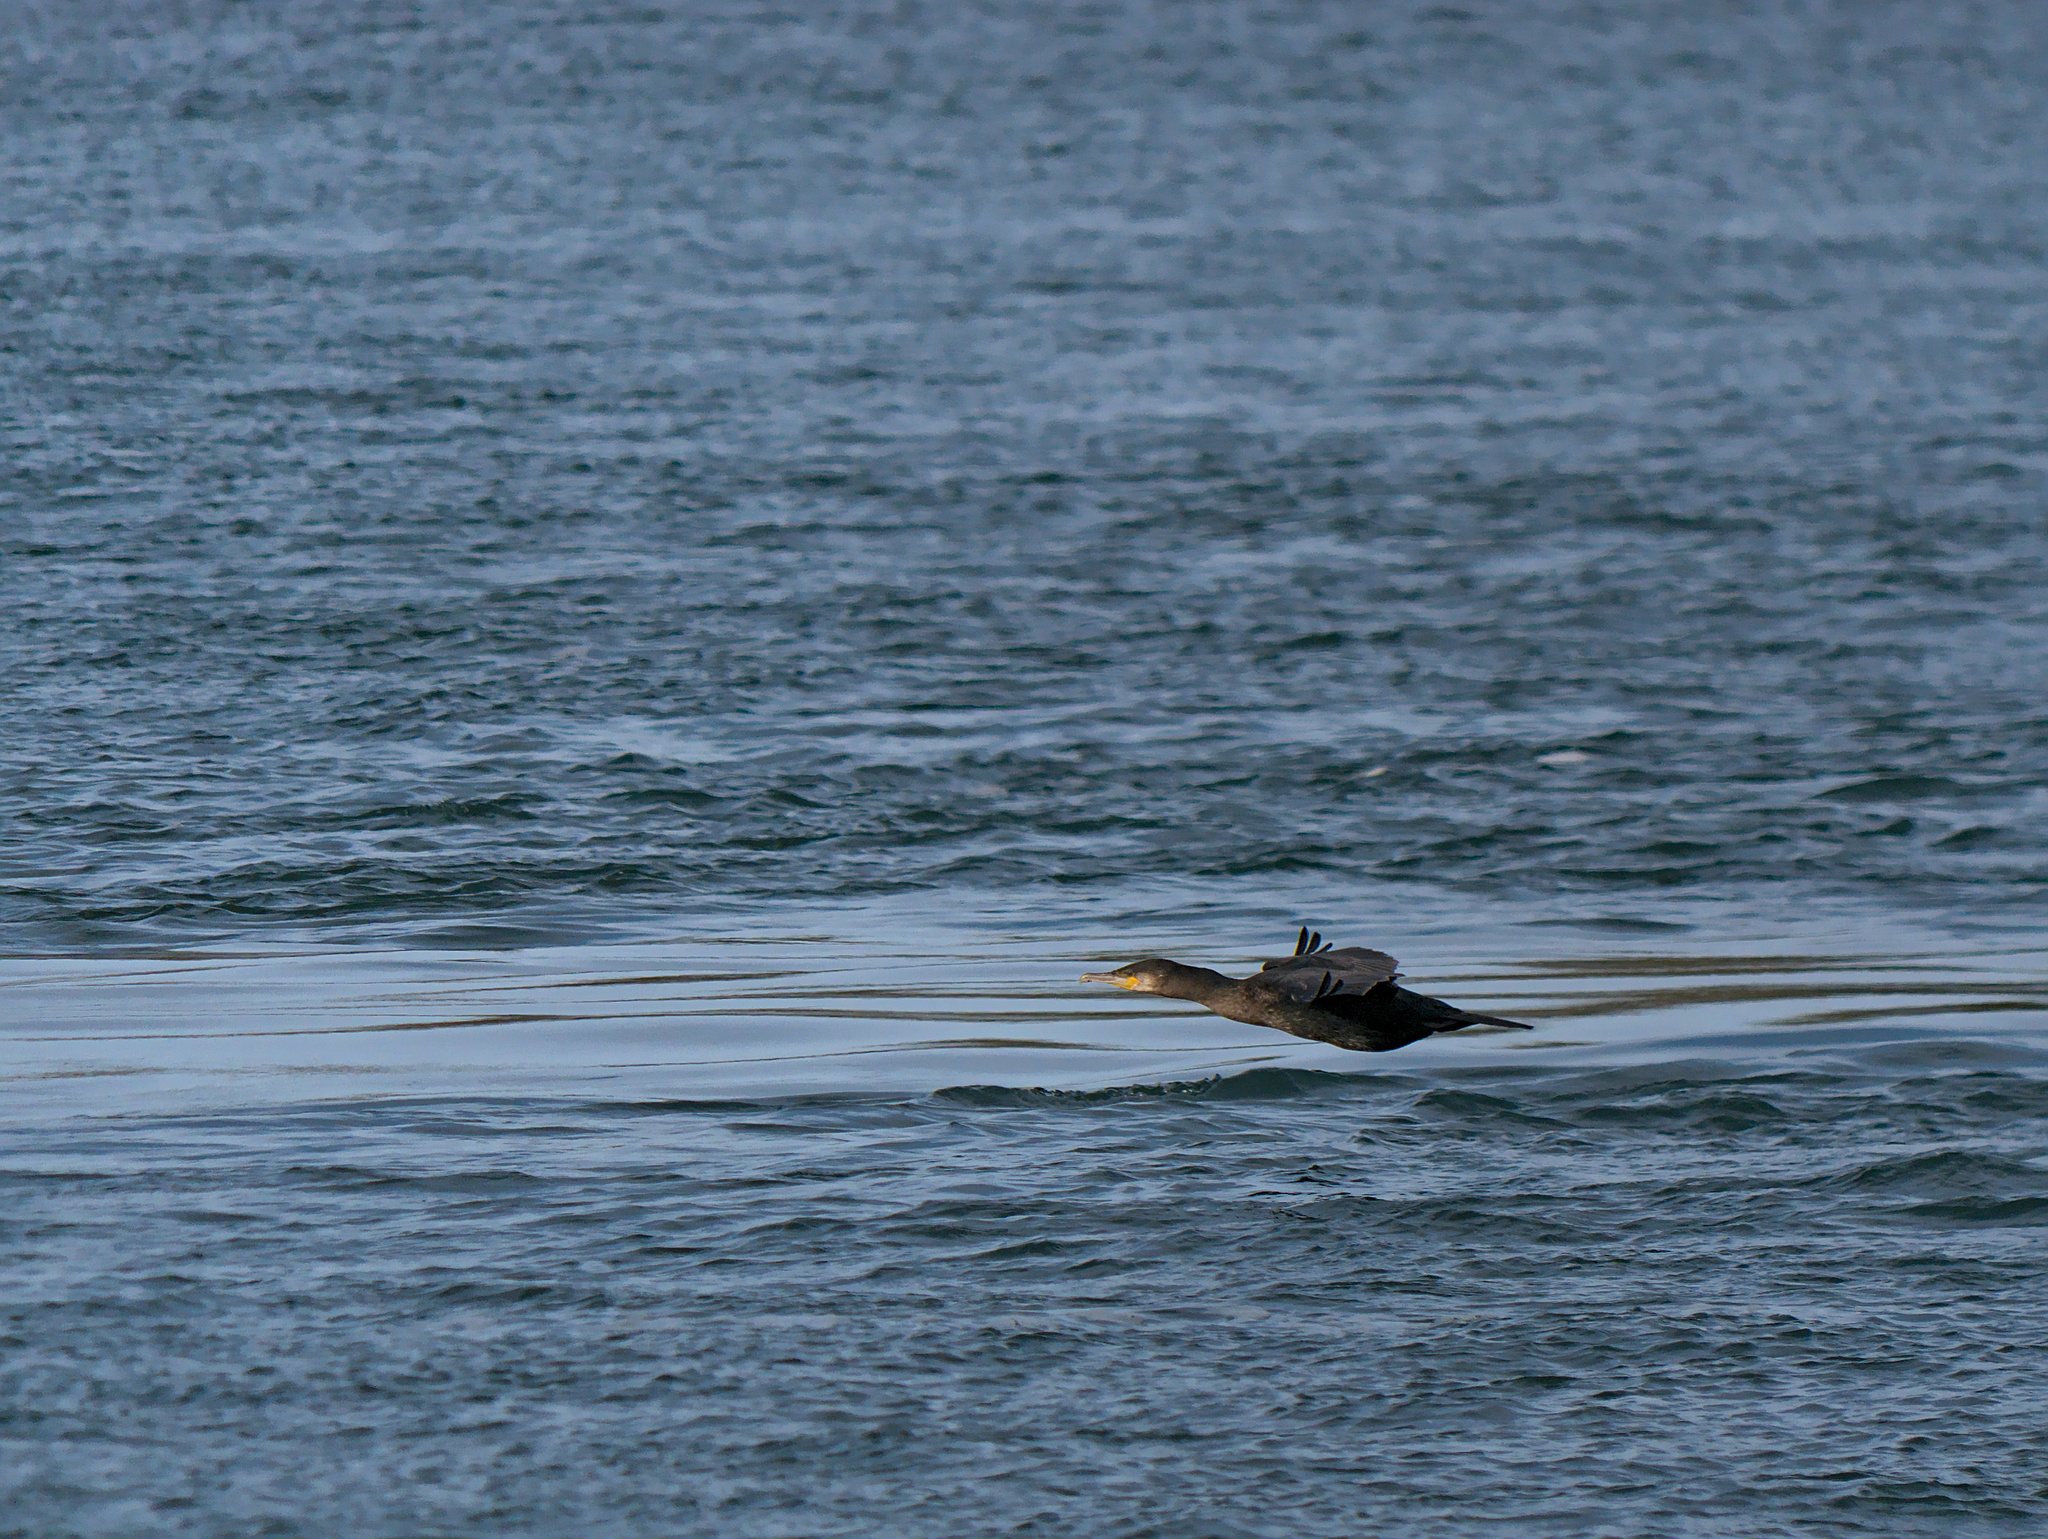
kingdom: Animalia
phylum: Chordata
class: Aves
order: Suliformes
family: Phalacrocoracidae
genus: Phalacrocorax
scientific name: Phalacrocorax auritus
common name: Double-crested cormorant
